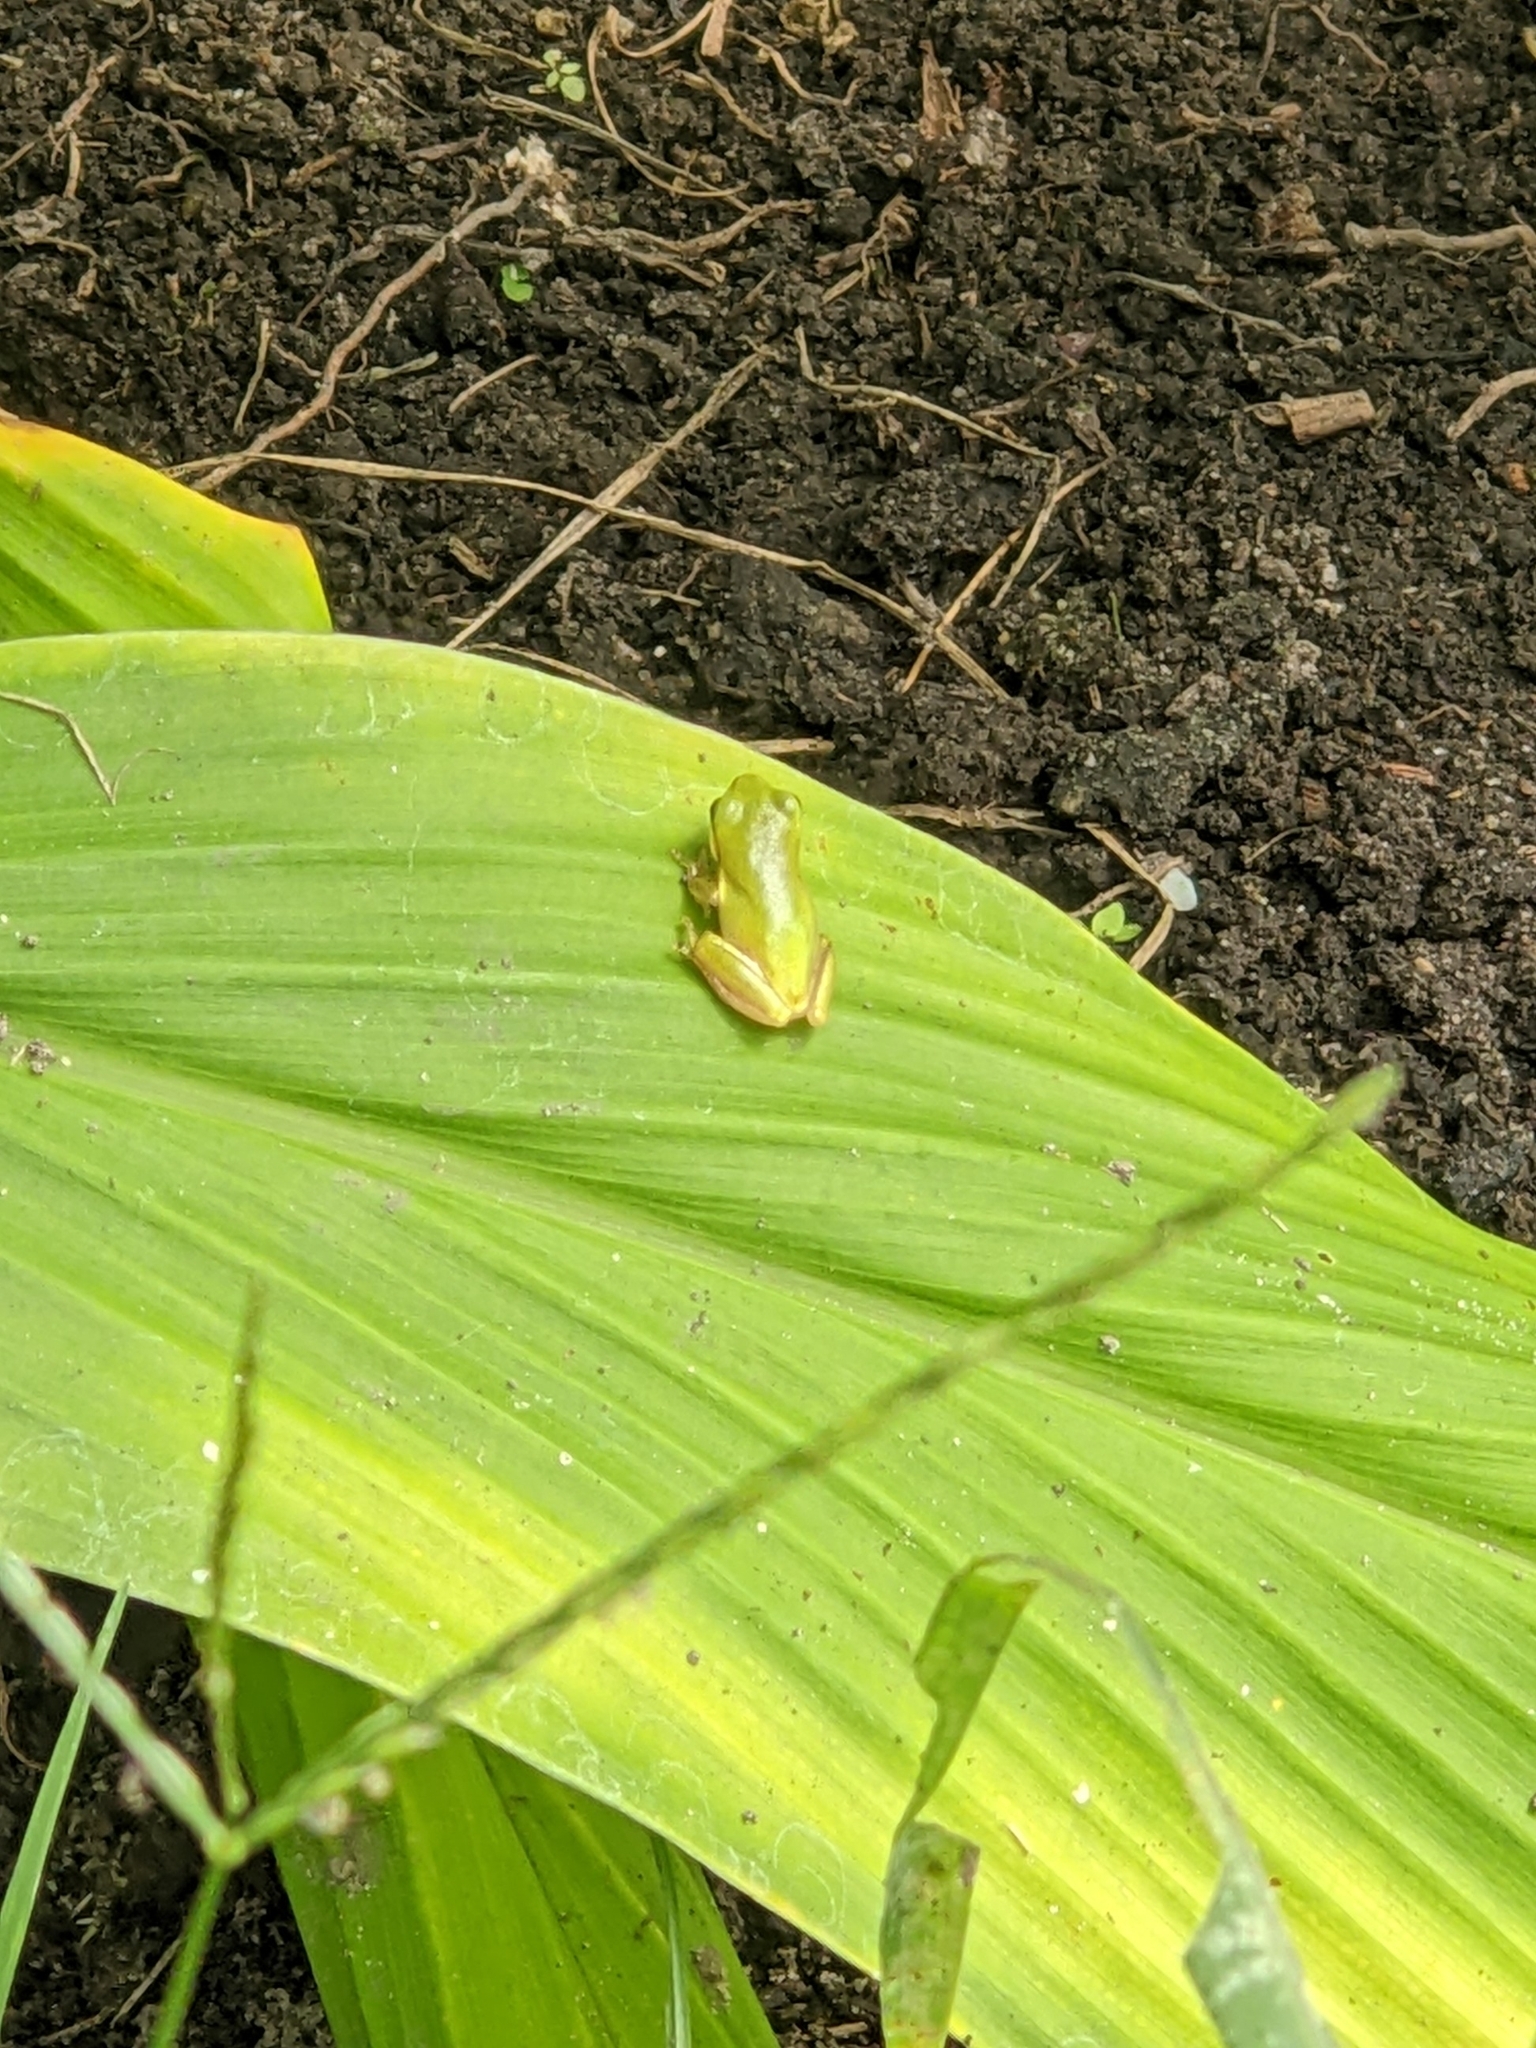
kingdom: Animalia
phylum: Chordata
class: Amphibia
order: Anura
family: Hylidae
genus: Dryophytes
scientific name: Dryophytes cinereus
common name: Green treefrog
